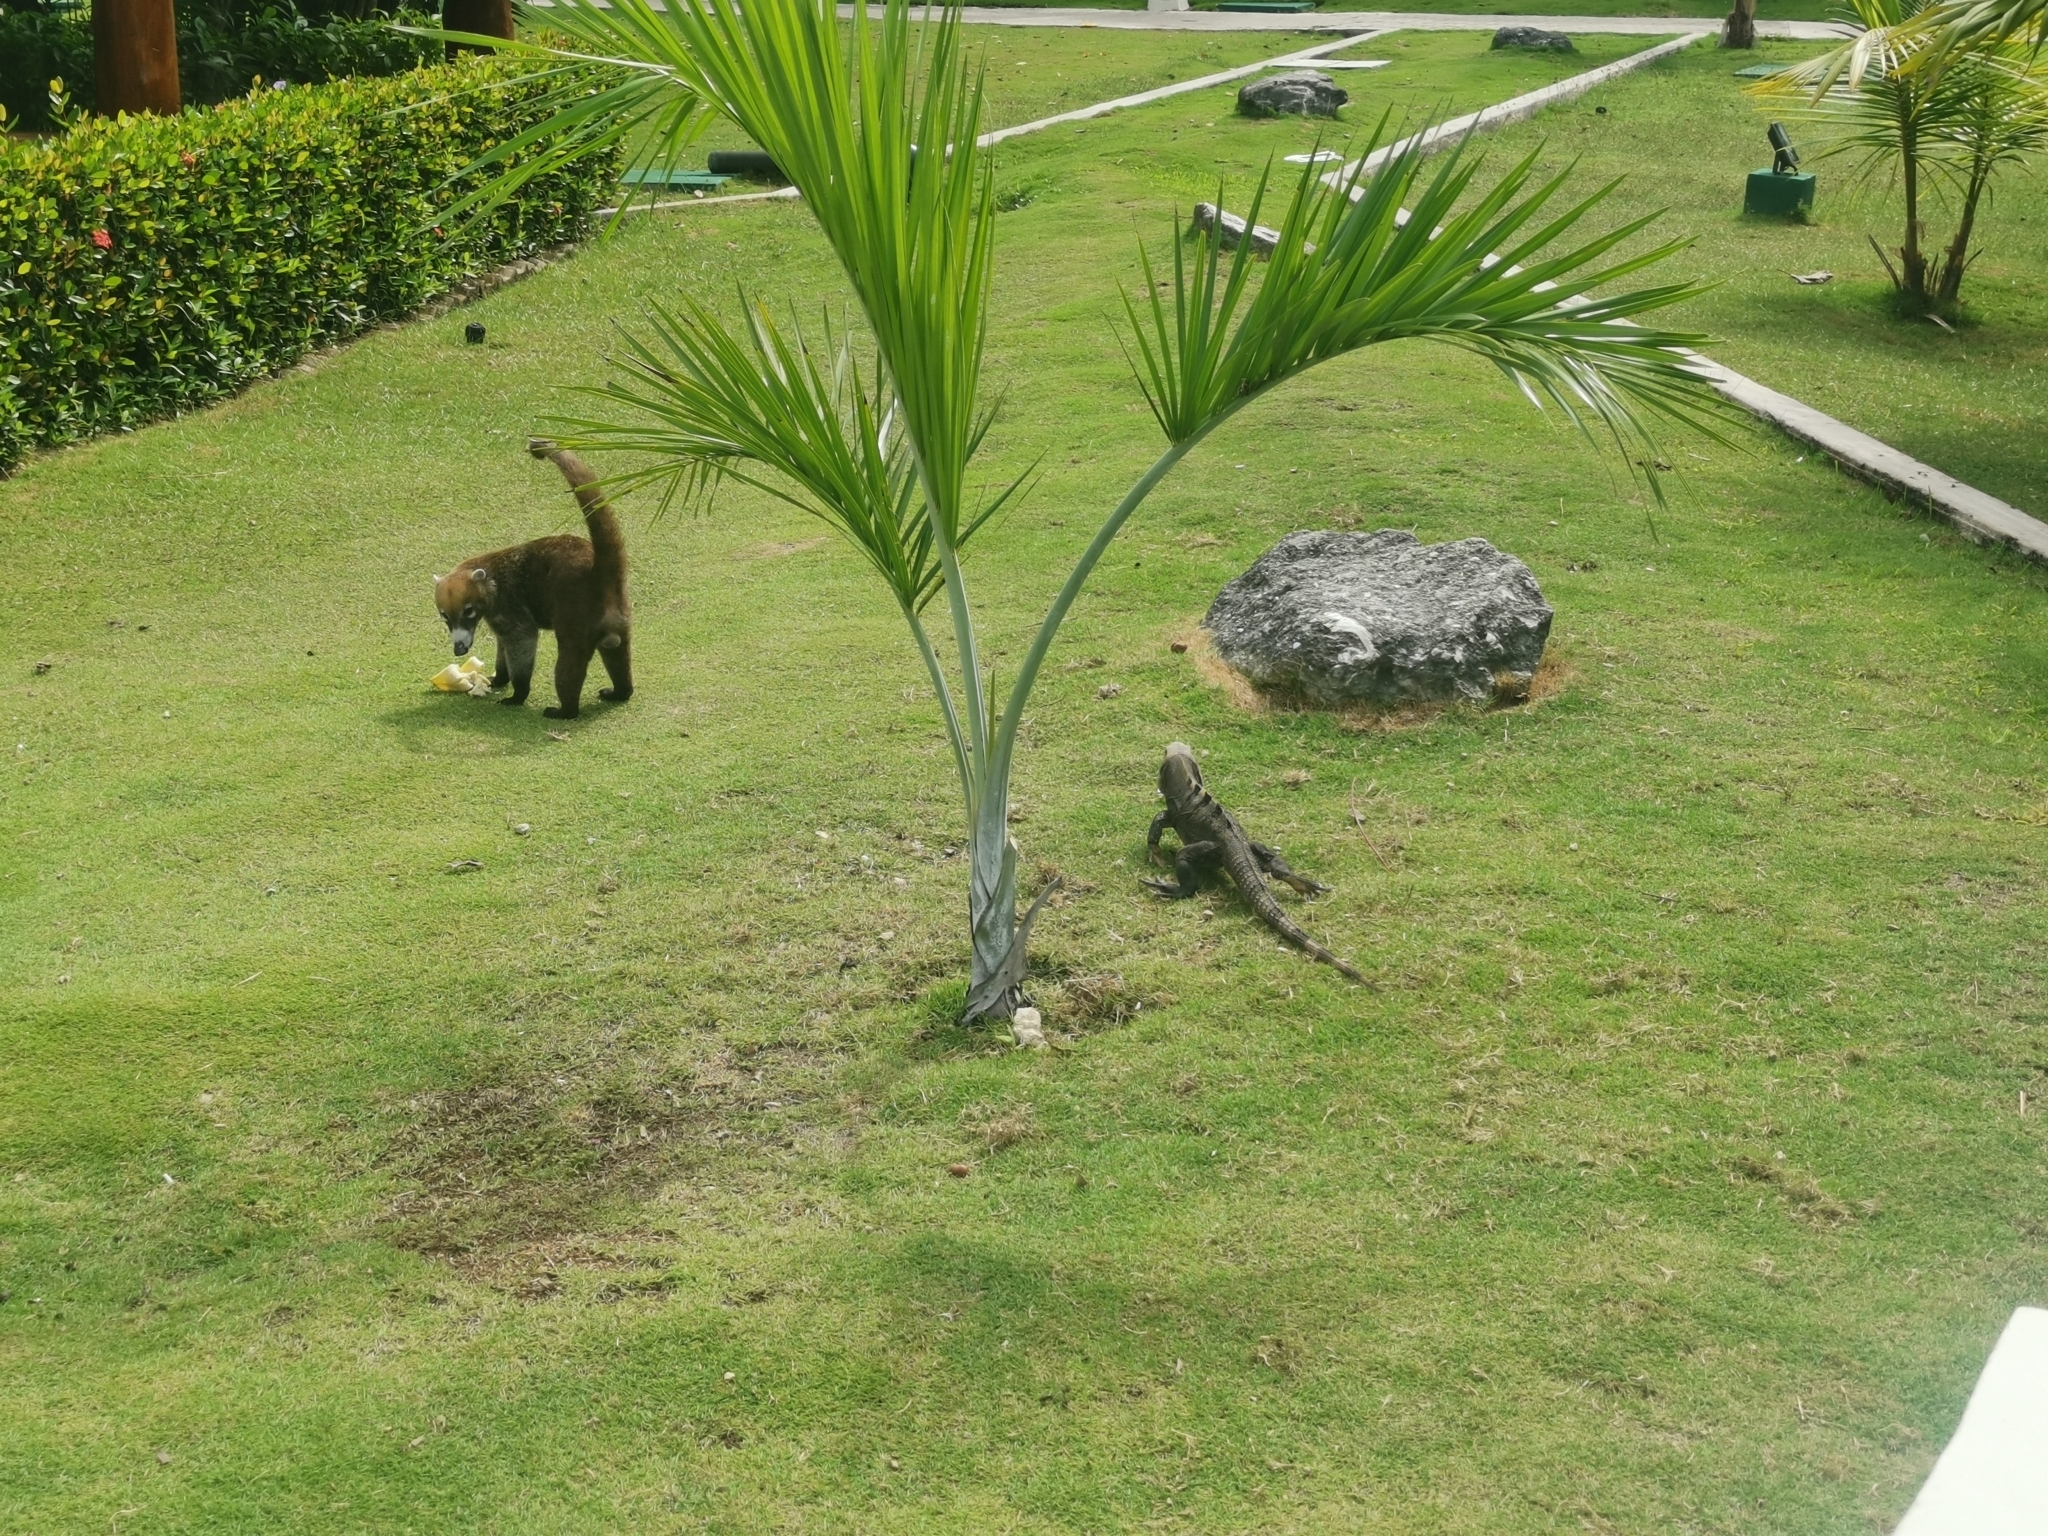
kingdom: Animalia
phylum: Chordata
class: Mammalia
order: Carnivora
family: Procyonidae
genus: Nasua
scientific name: Nasua narica
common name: White-nosed coati
